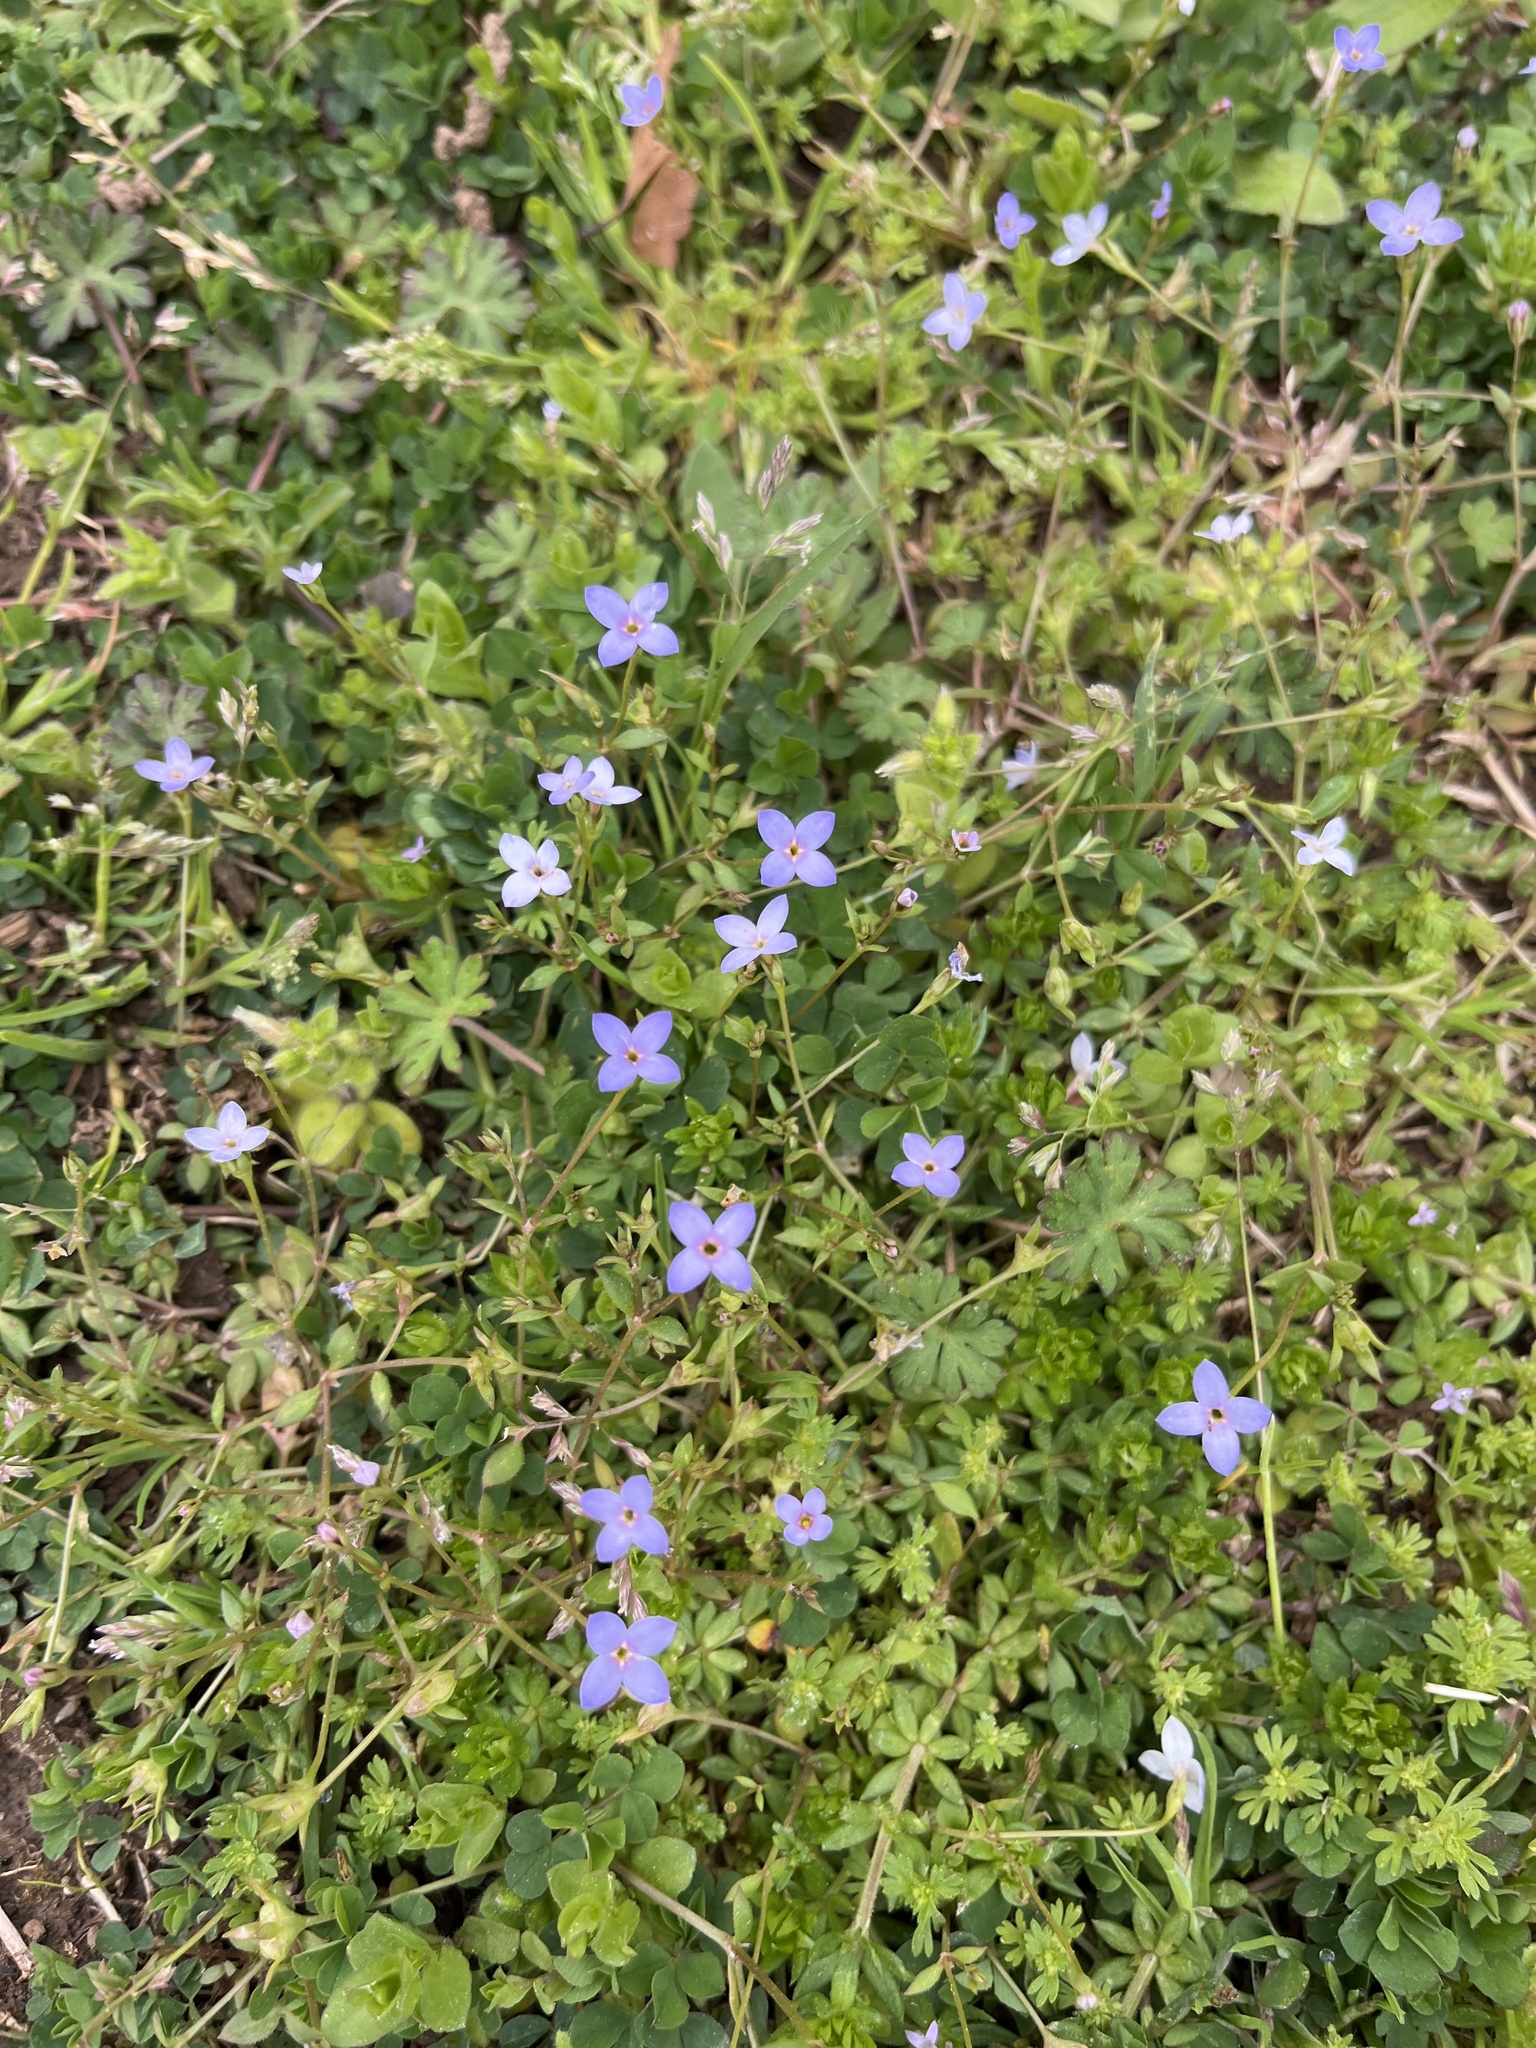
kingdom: Plantae
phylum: Tracheophyta
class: Magnoliopsida
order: Gentianales
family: Rubiaceae
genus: Houstonia
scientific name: Houstonia pusilla
